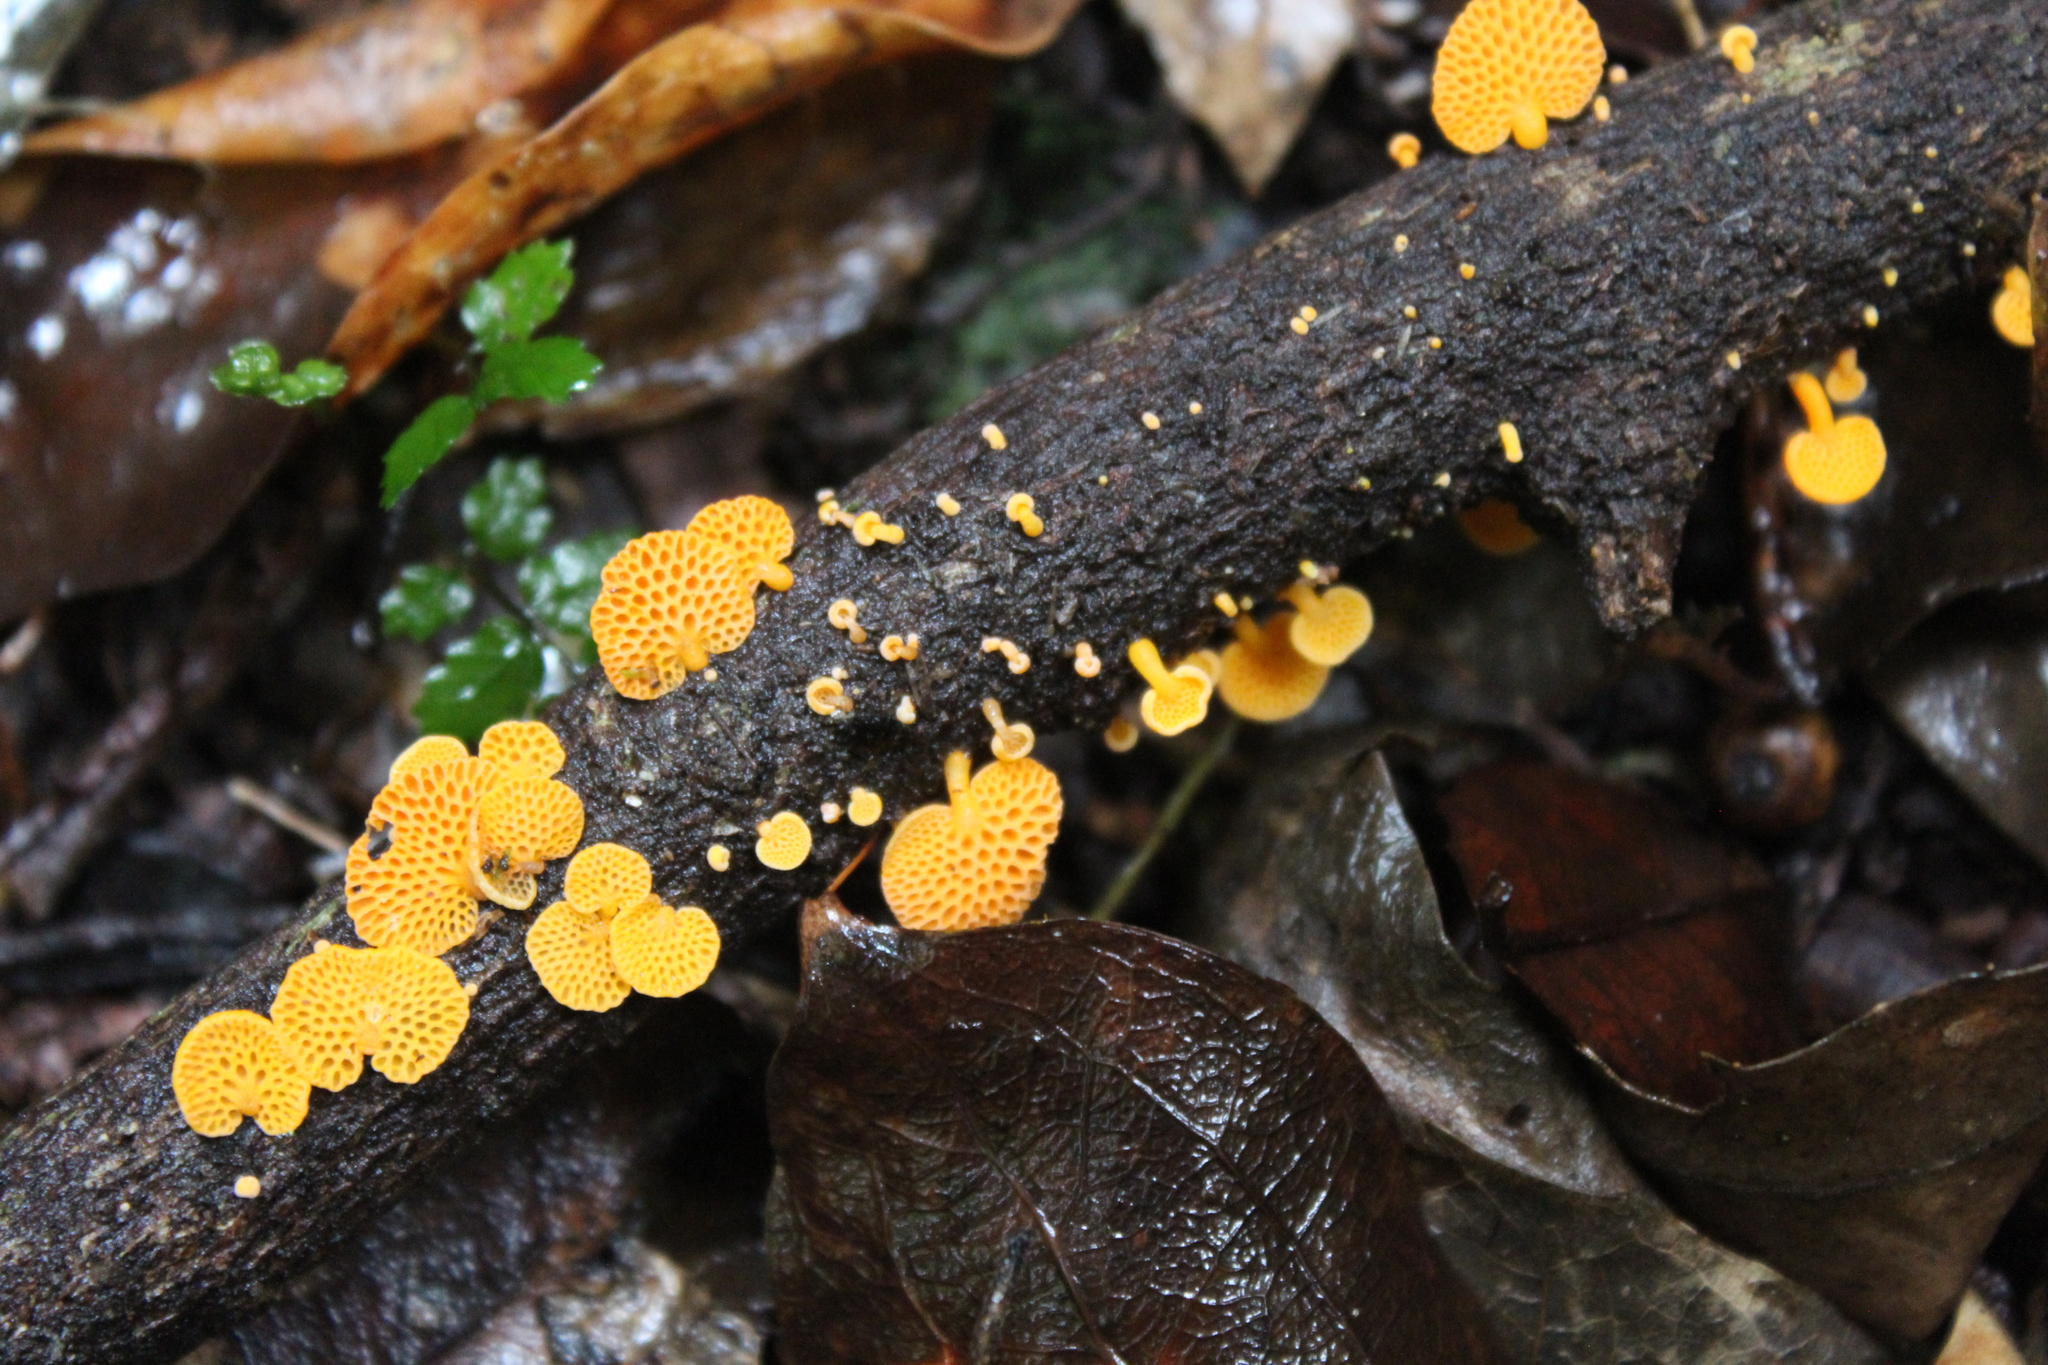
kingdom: Fungi
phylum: Basidiomycota
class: Agaricomycetes
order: Agaricales
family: Mycenaceae
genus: Favolaschia
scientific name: Favolaschia claudopus
